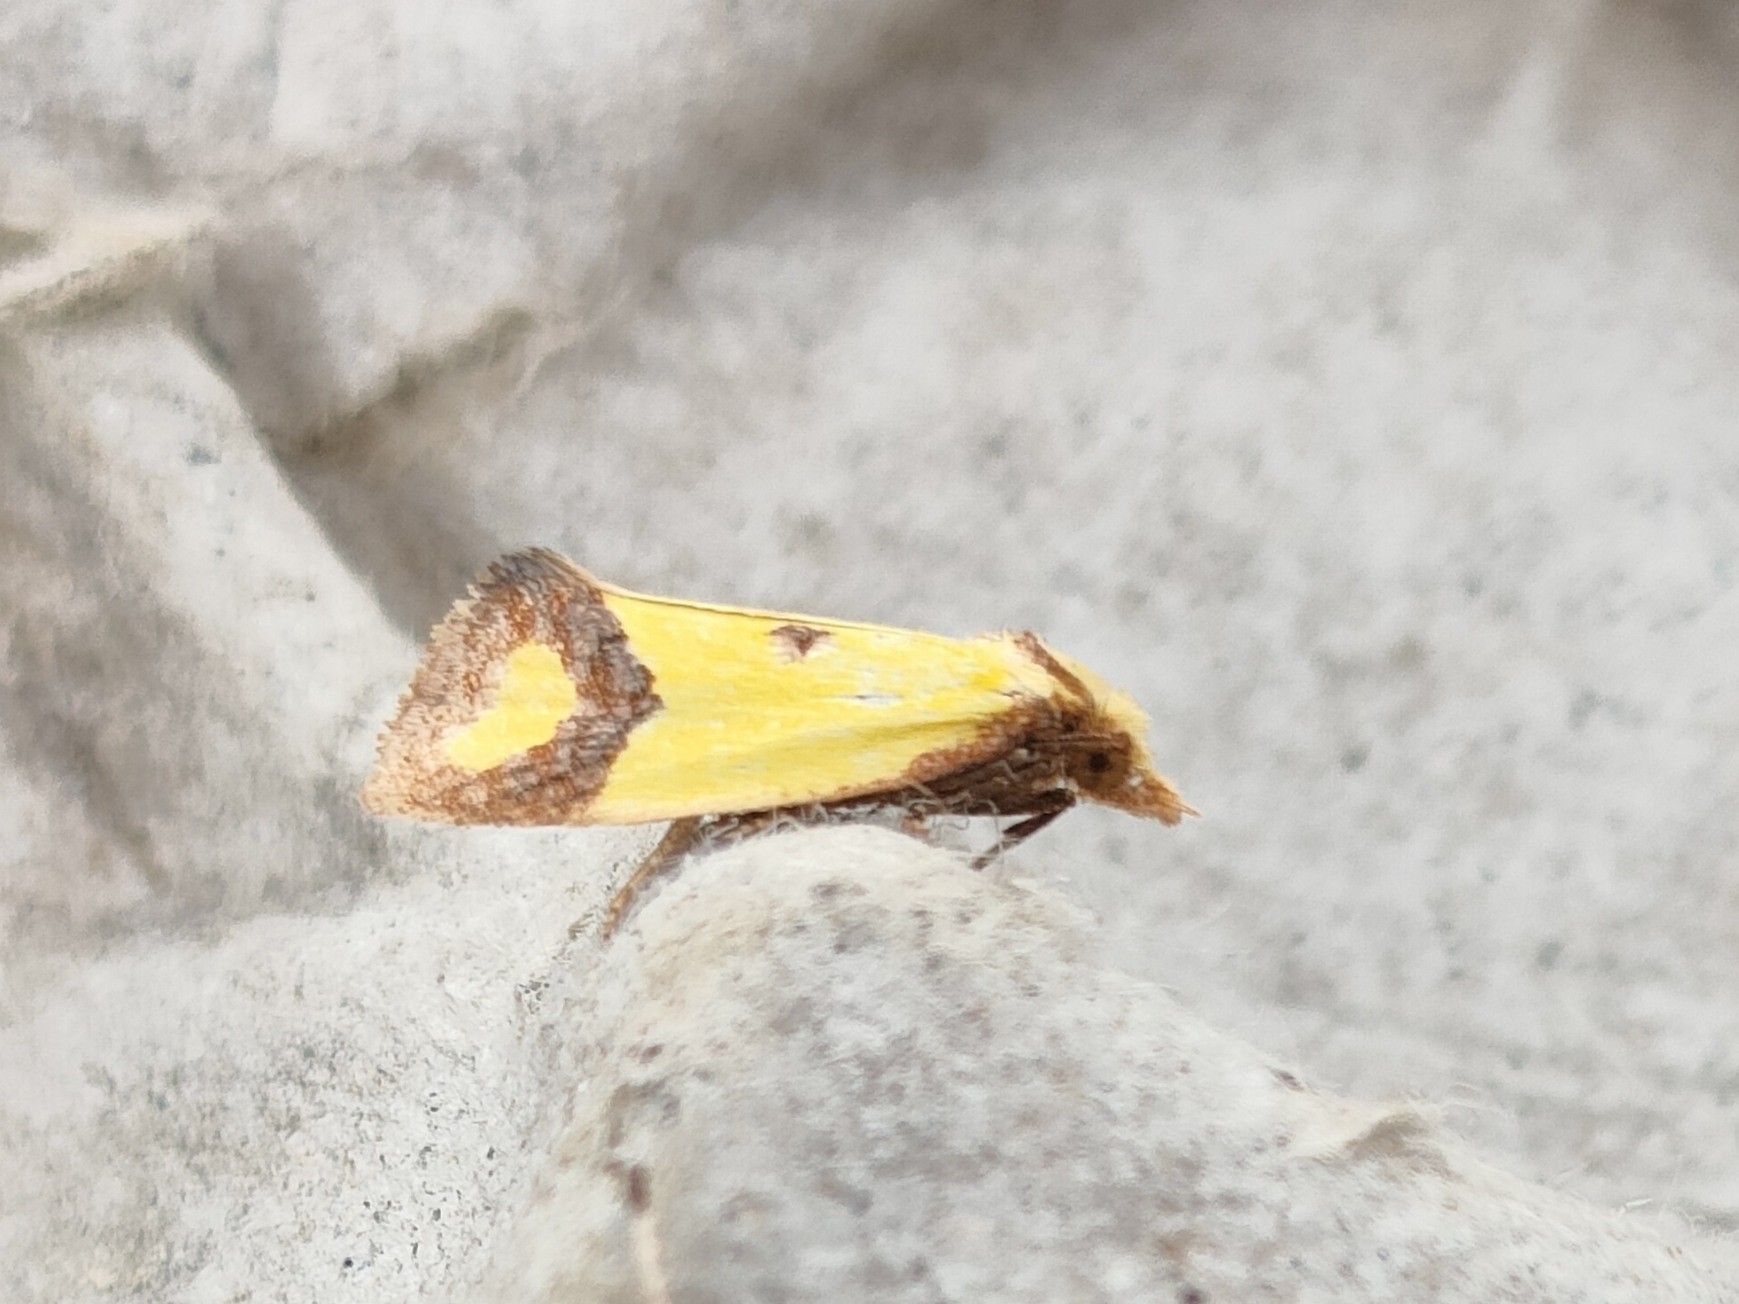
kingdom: Animalia
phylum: Arthropoda
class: Insecta
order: Lepidoptera
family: Tortricidae
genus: Agapeta
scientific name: Agapeta zoegana
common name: Sulfur knapweed root moth
